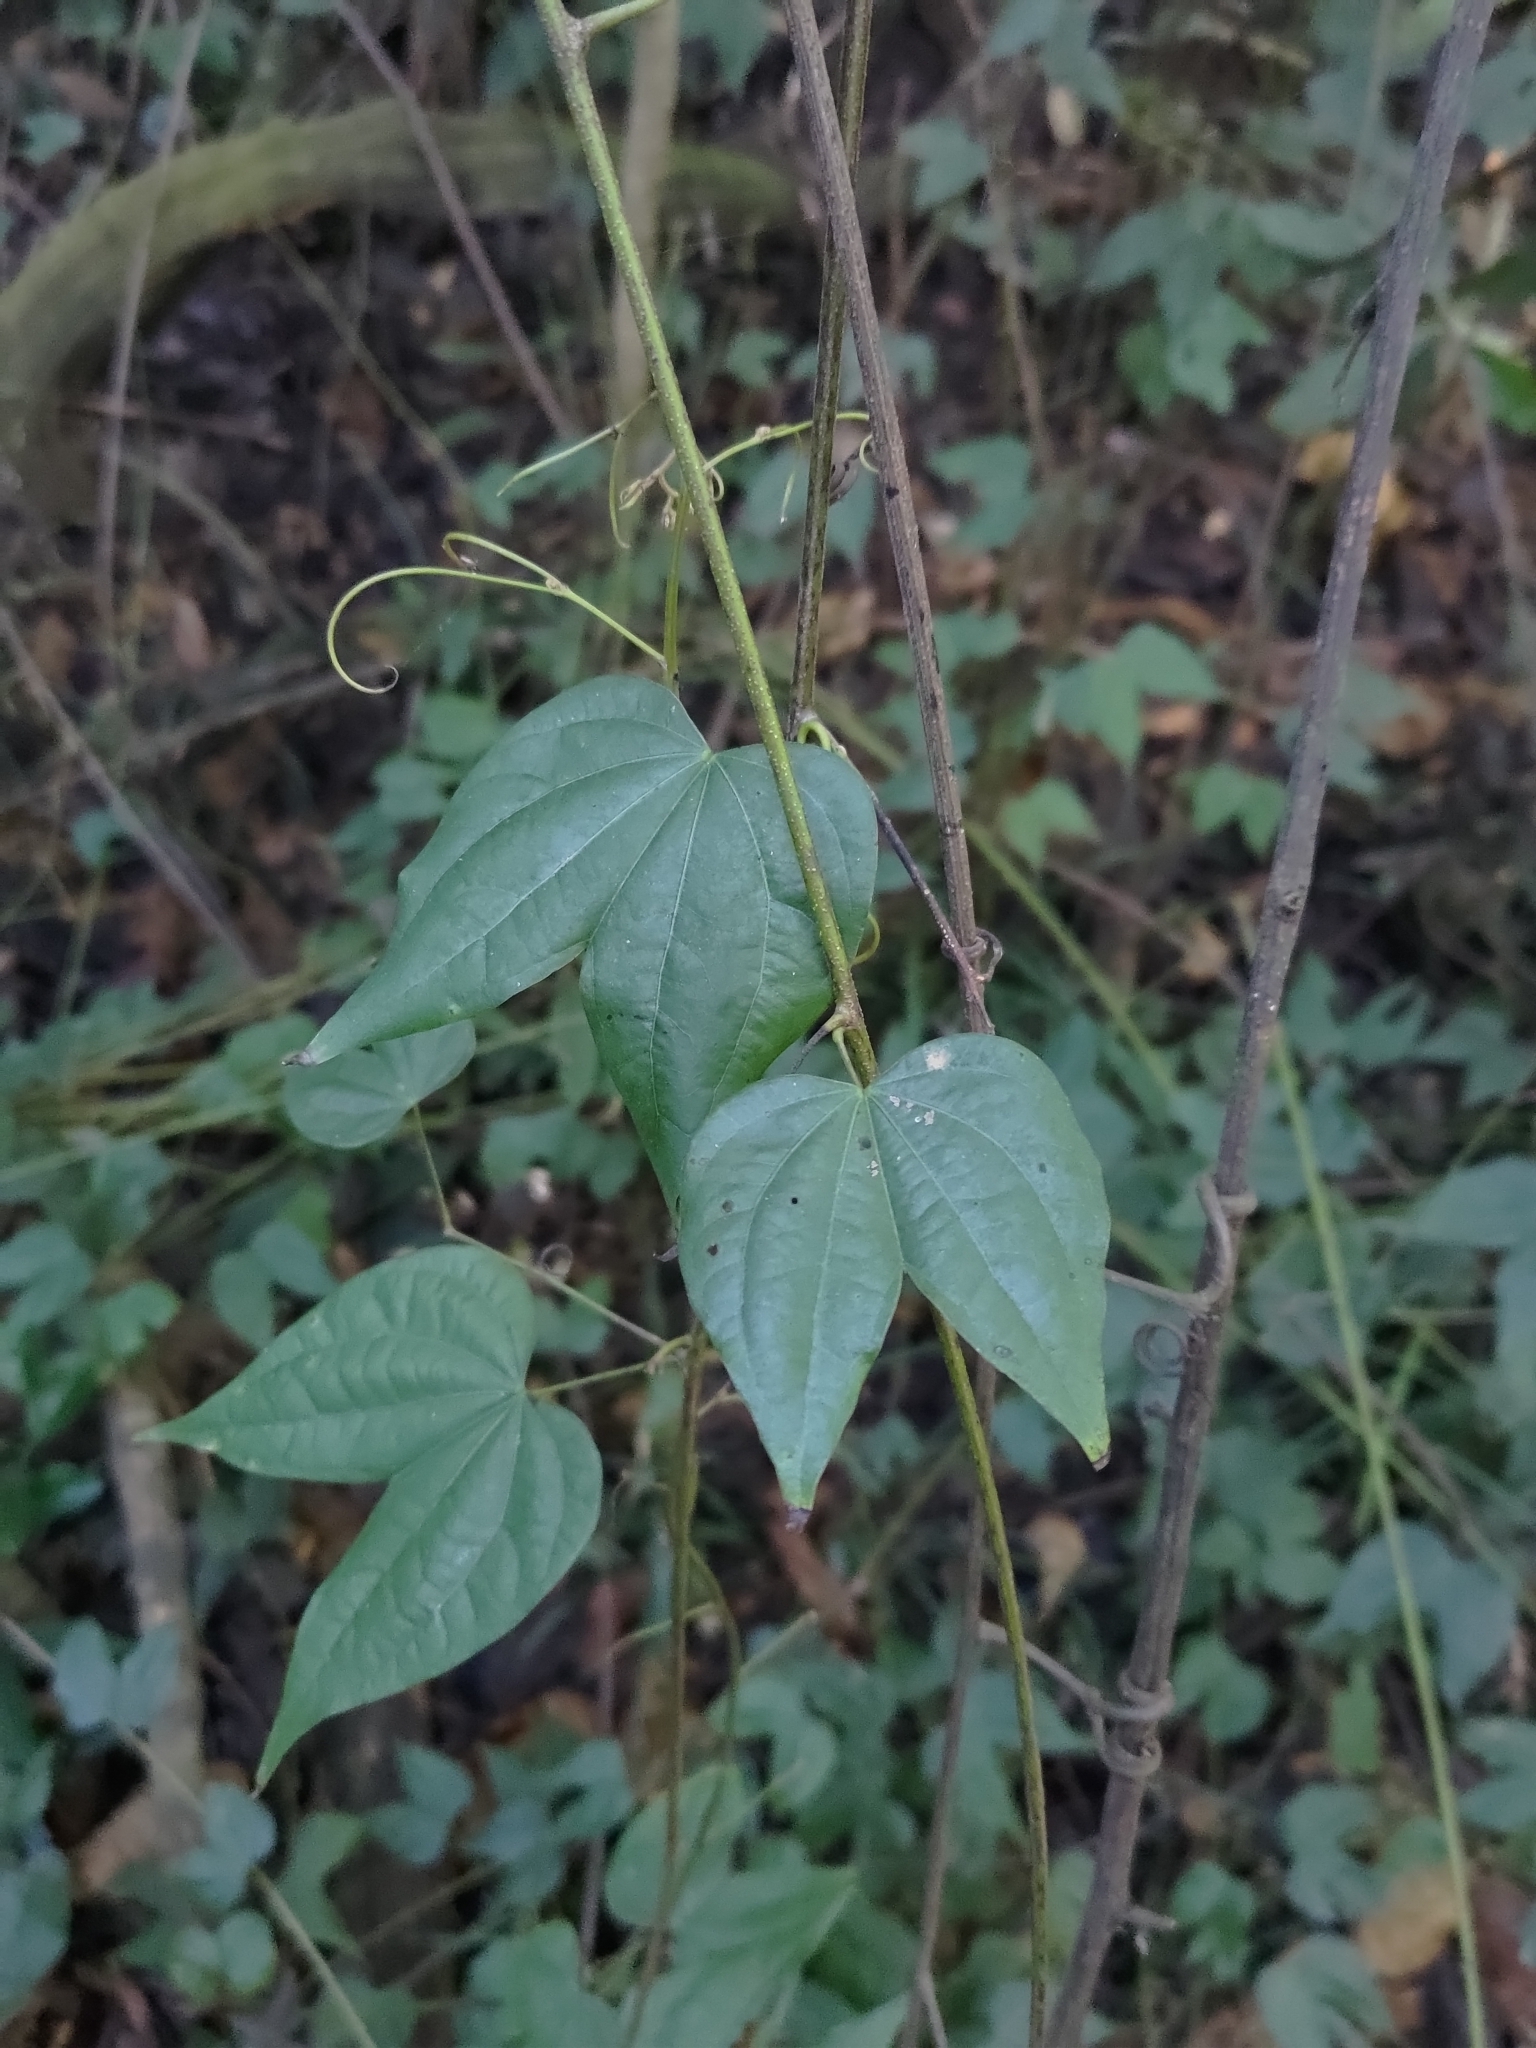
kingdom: Plantae
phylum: Tracheophyta
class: Magnoliopsida
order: Fabales
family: Fabaceae
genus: Phanera
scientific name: Phanera championii
